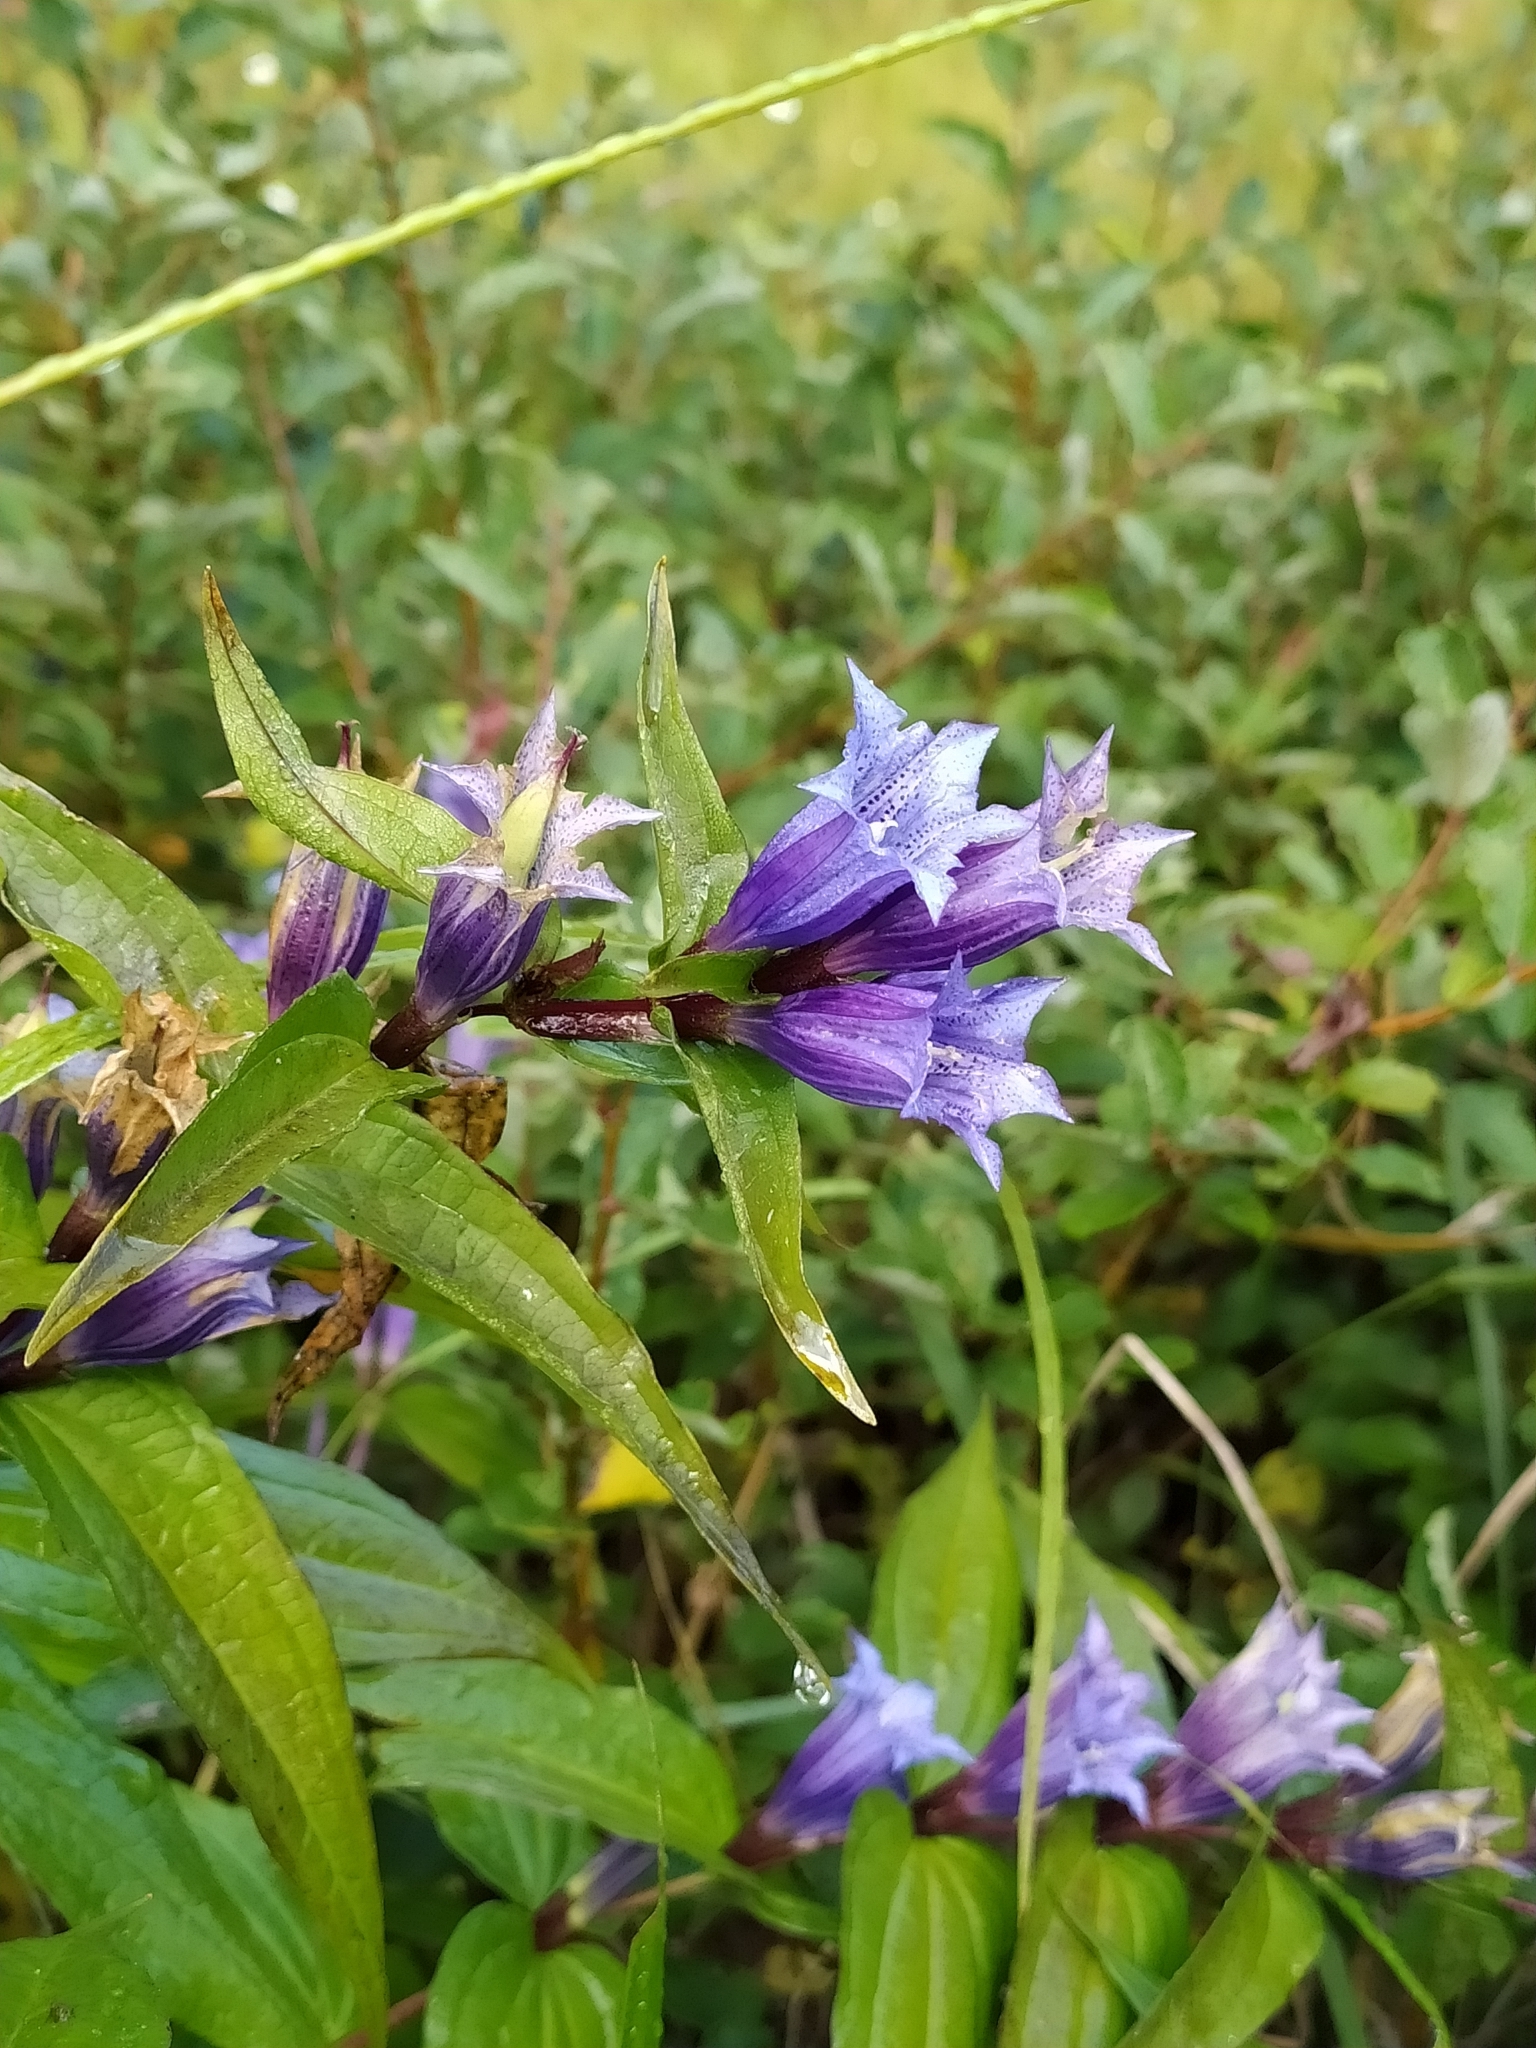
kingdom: Plantae
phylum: Tracheophyta
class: Magnoliopsida
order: Gentianales
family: Gentianaceae
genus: Gentiana
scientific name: Gentiana asclepiadea
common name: Willow gentian
